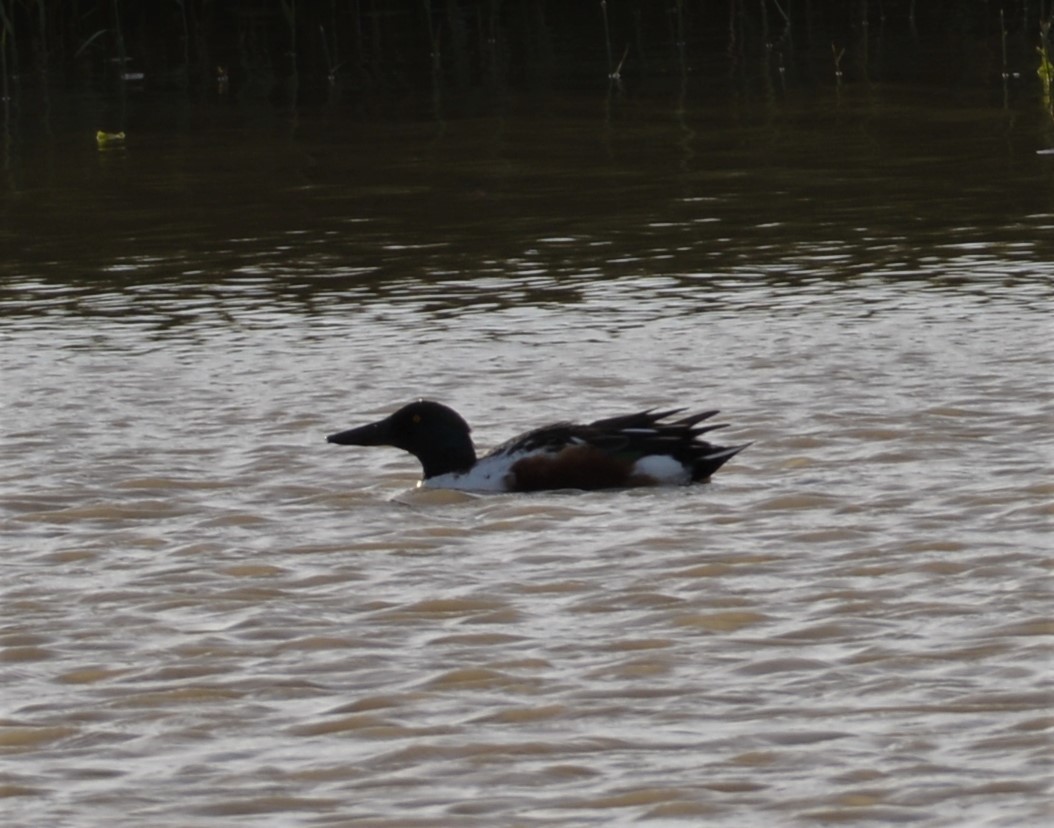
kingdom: Animalia
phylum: Chordata
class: Aves
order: Anseriformes
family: Anatidae
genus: Spatula
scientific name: Spatula clypeata
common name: Northern shoveler
